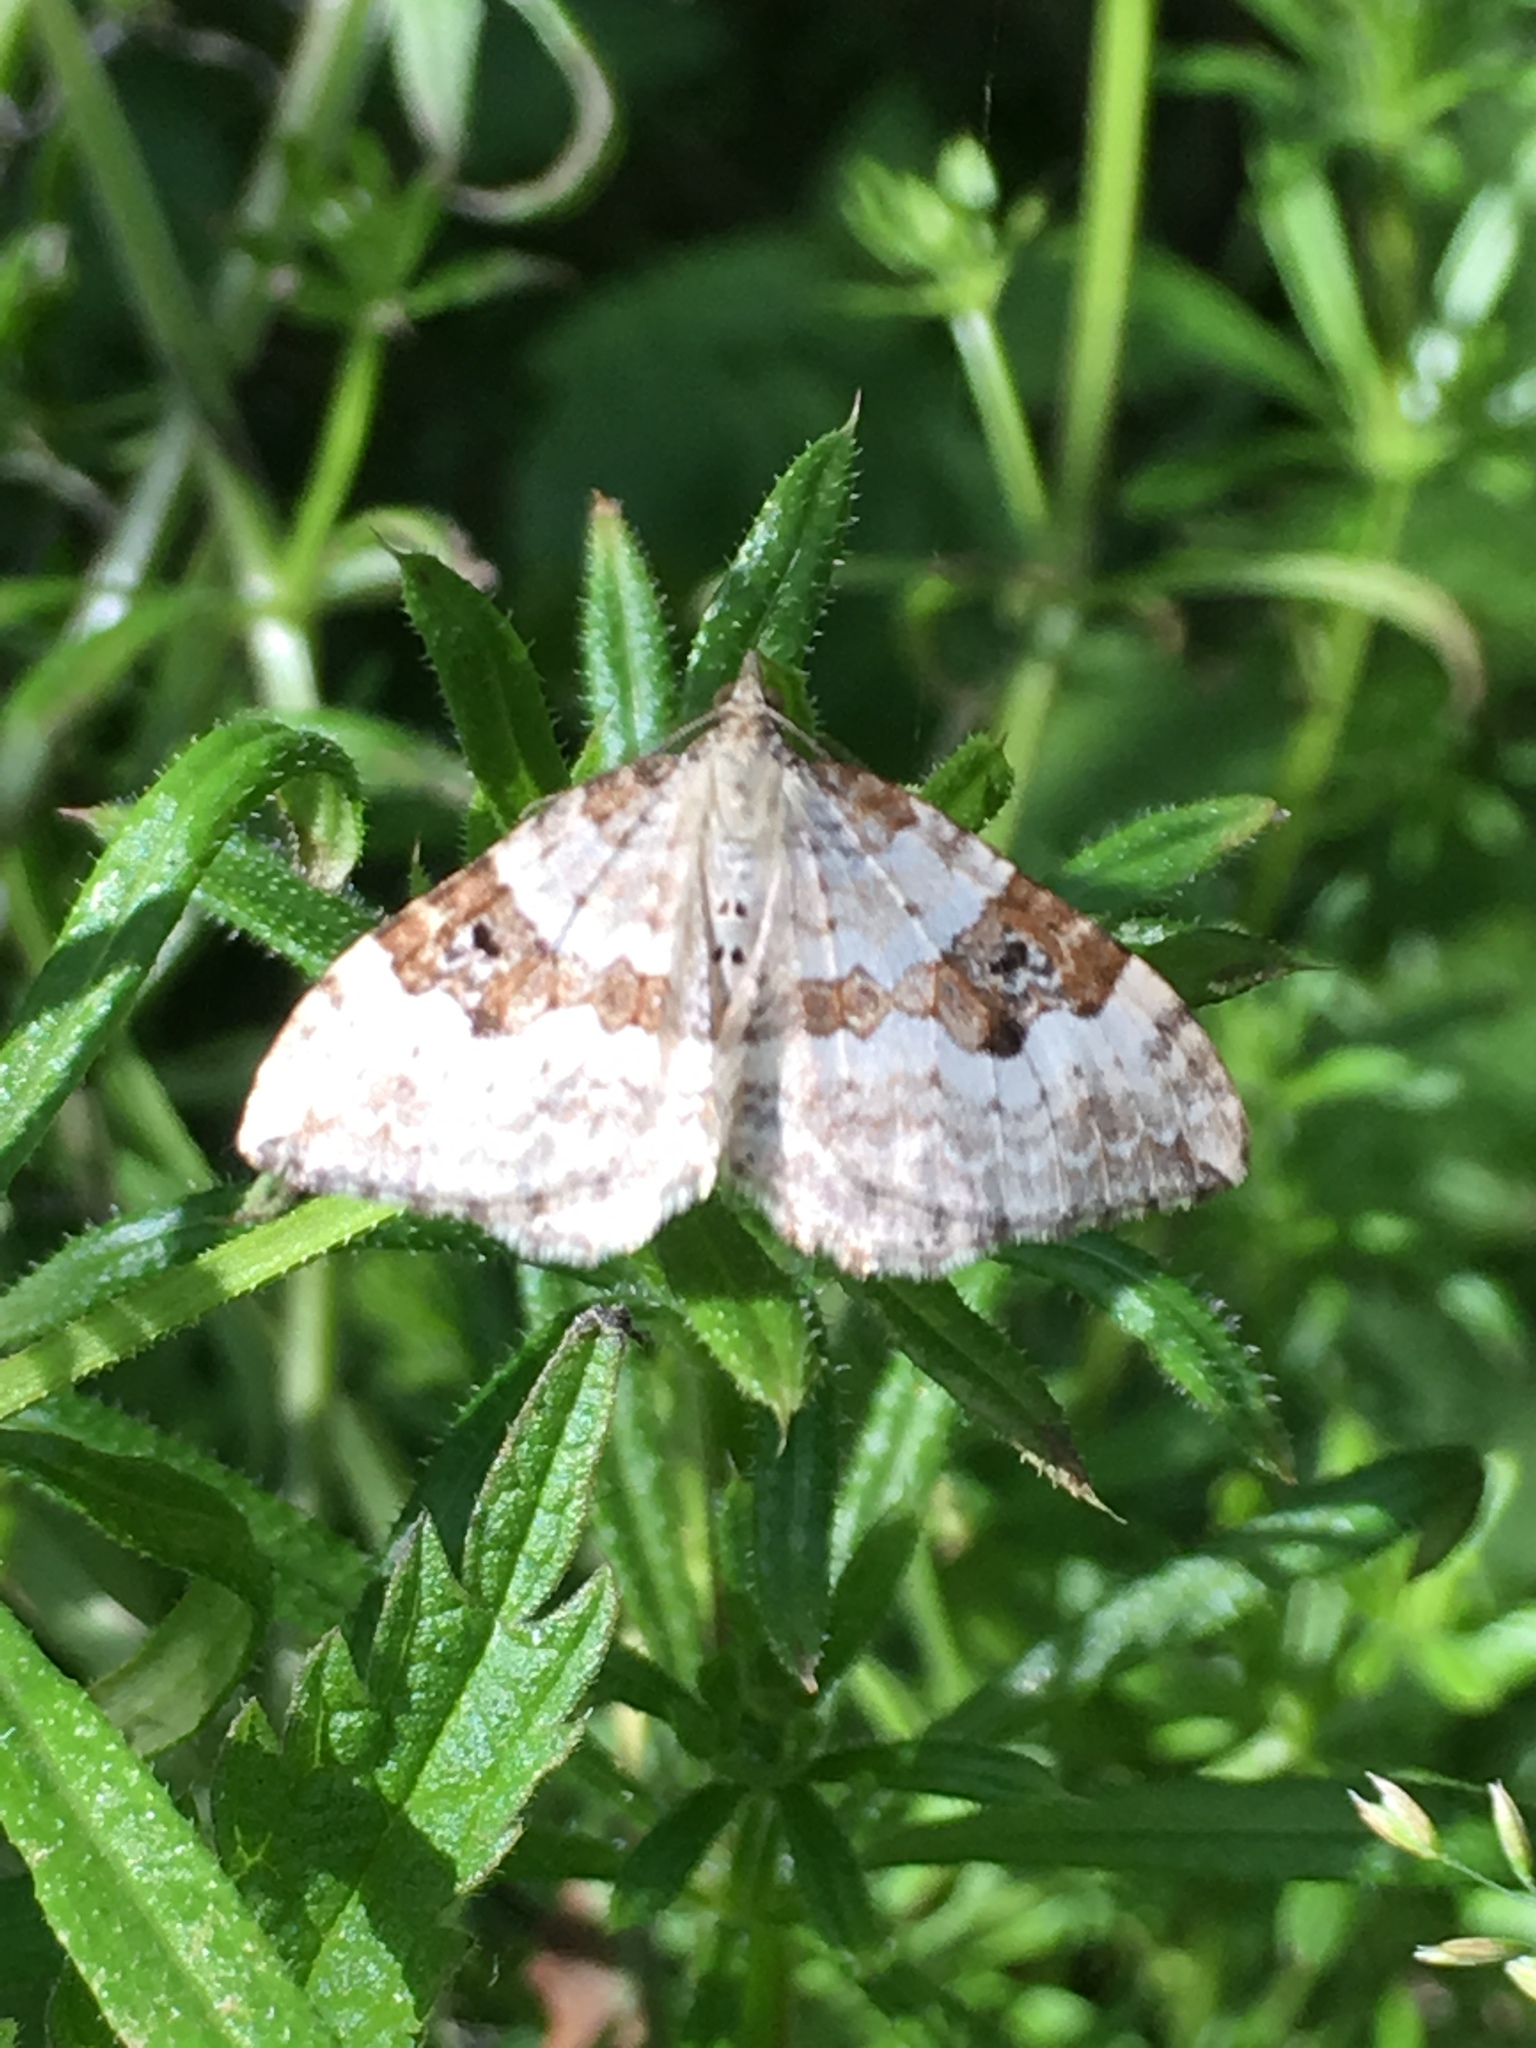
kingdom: Animalia
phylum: Arthropoda
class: Insecta
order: Lepidoptera
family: Geometridae
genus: Xanthorhoe
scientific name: Xanthorhoe montanata
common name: Silver-ground carpet
